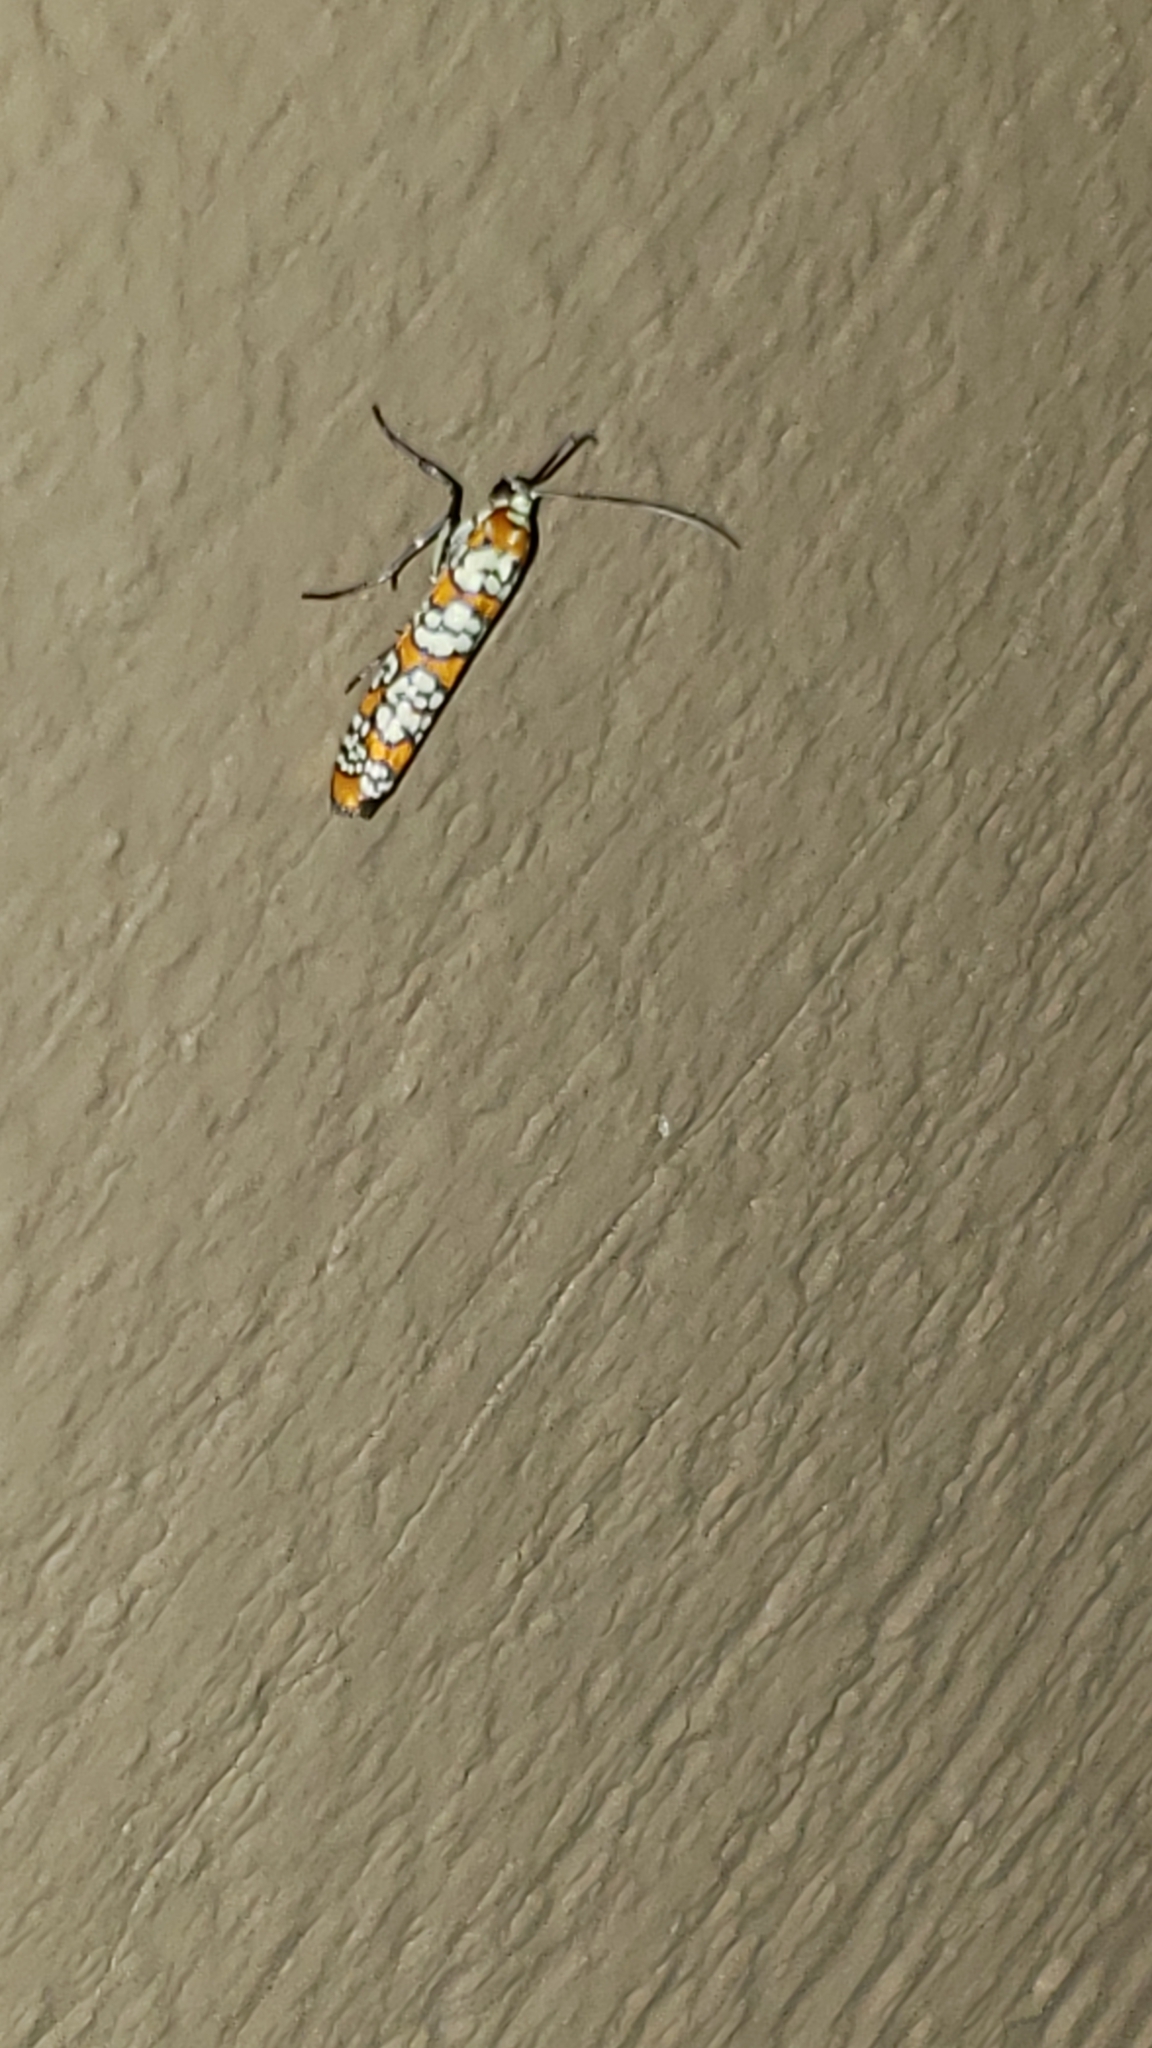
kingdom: Animalia
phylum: Arthropoda
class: Insecta
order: Lepidoptera
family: Attevidae
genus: Atteva
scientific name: Atteva punctella
